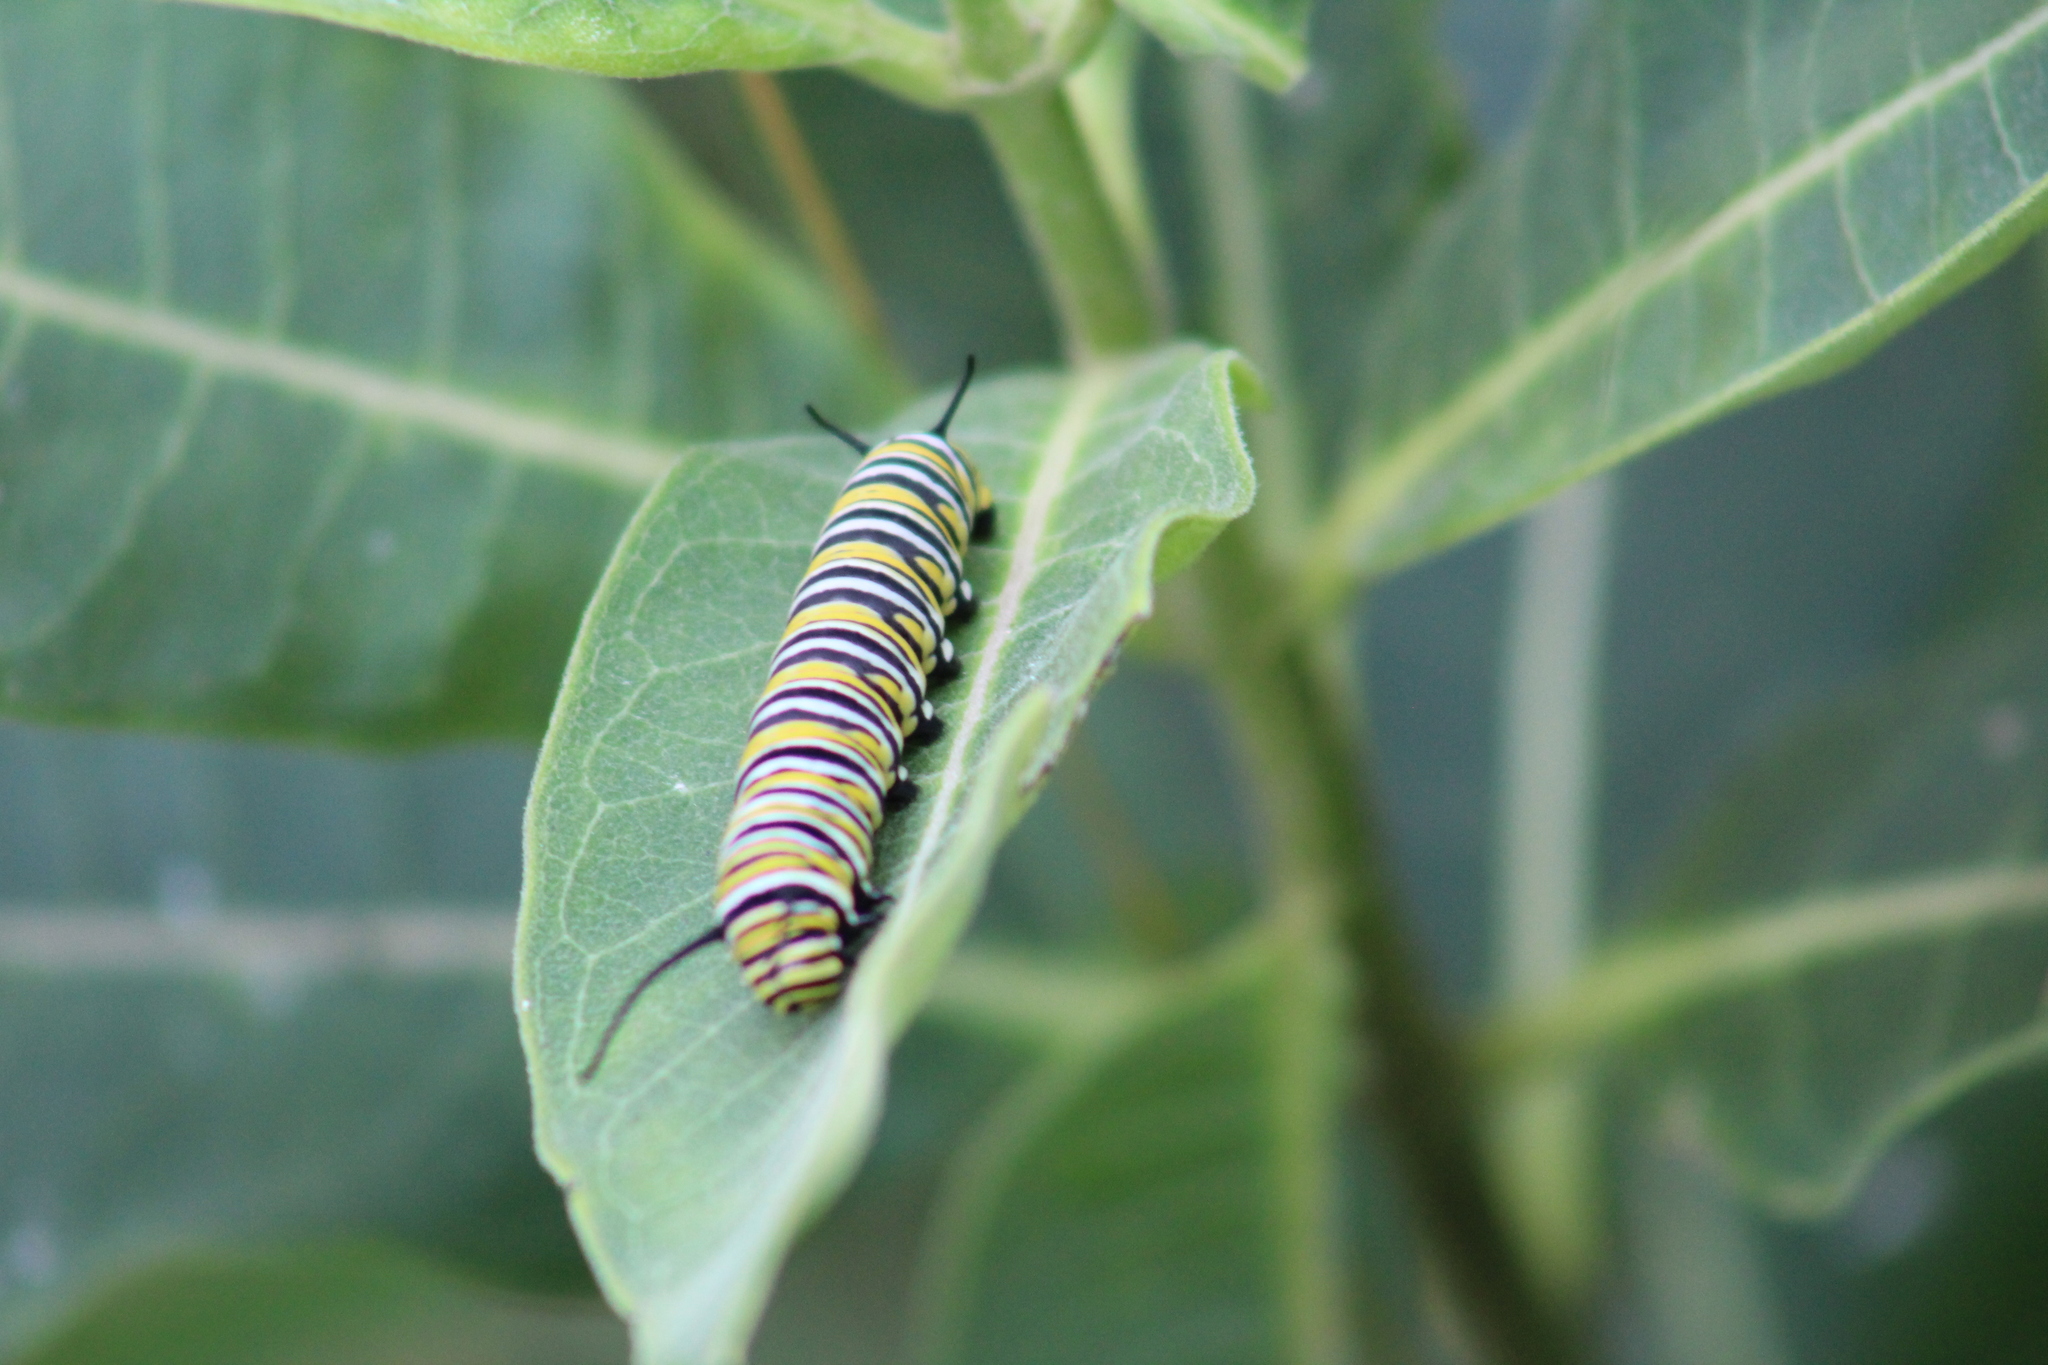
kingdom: Animalia
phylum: Arthropoda
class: Insecta
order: Lepidoptera
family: Nymphalidae
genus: Danaus
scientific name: Danaus plexippus
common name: Monarch
